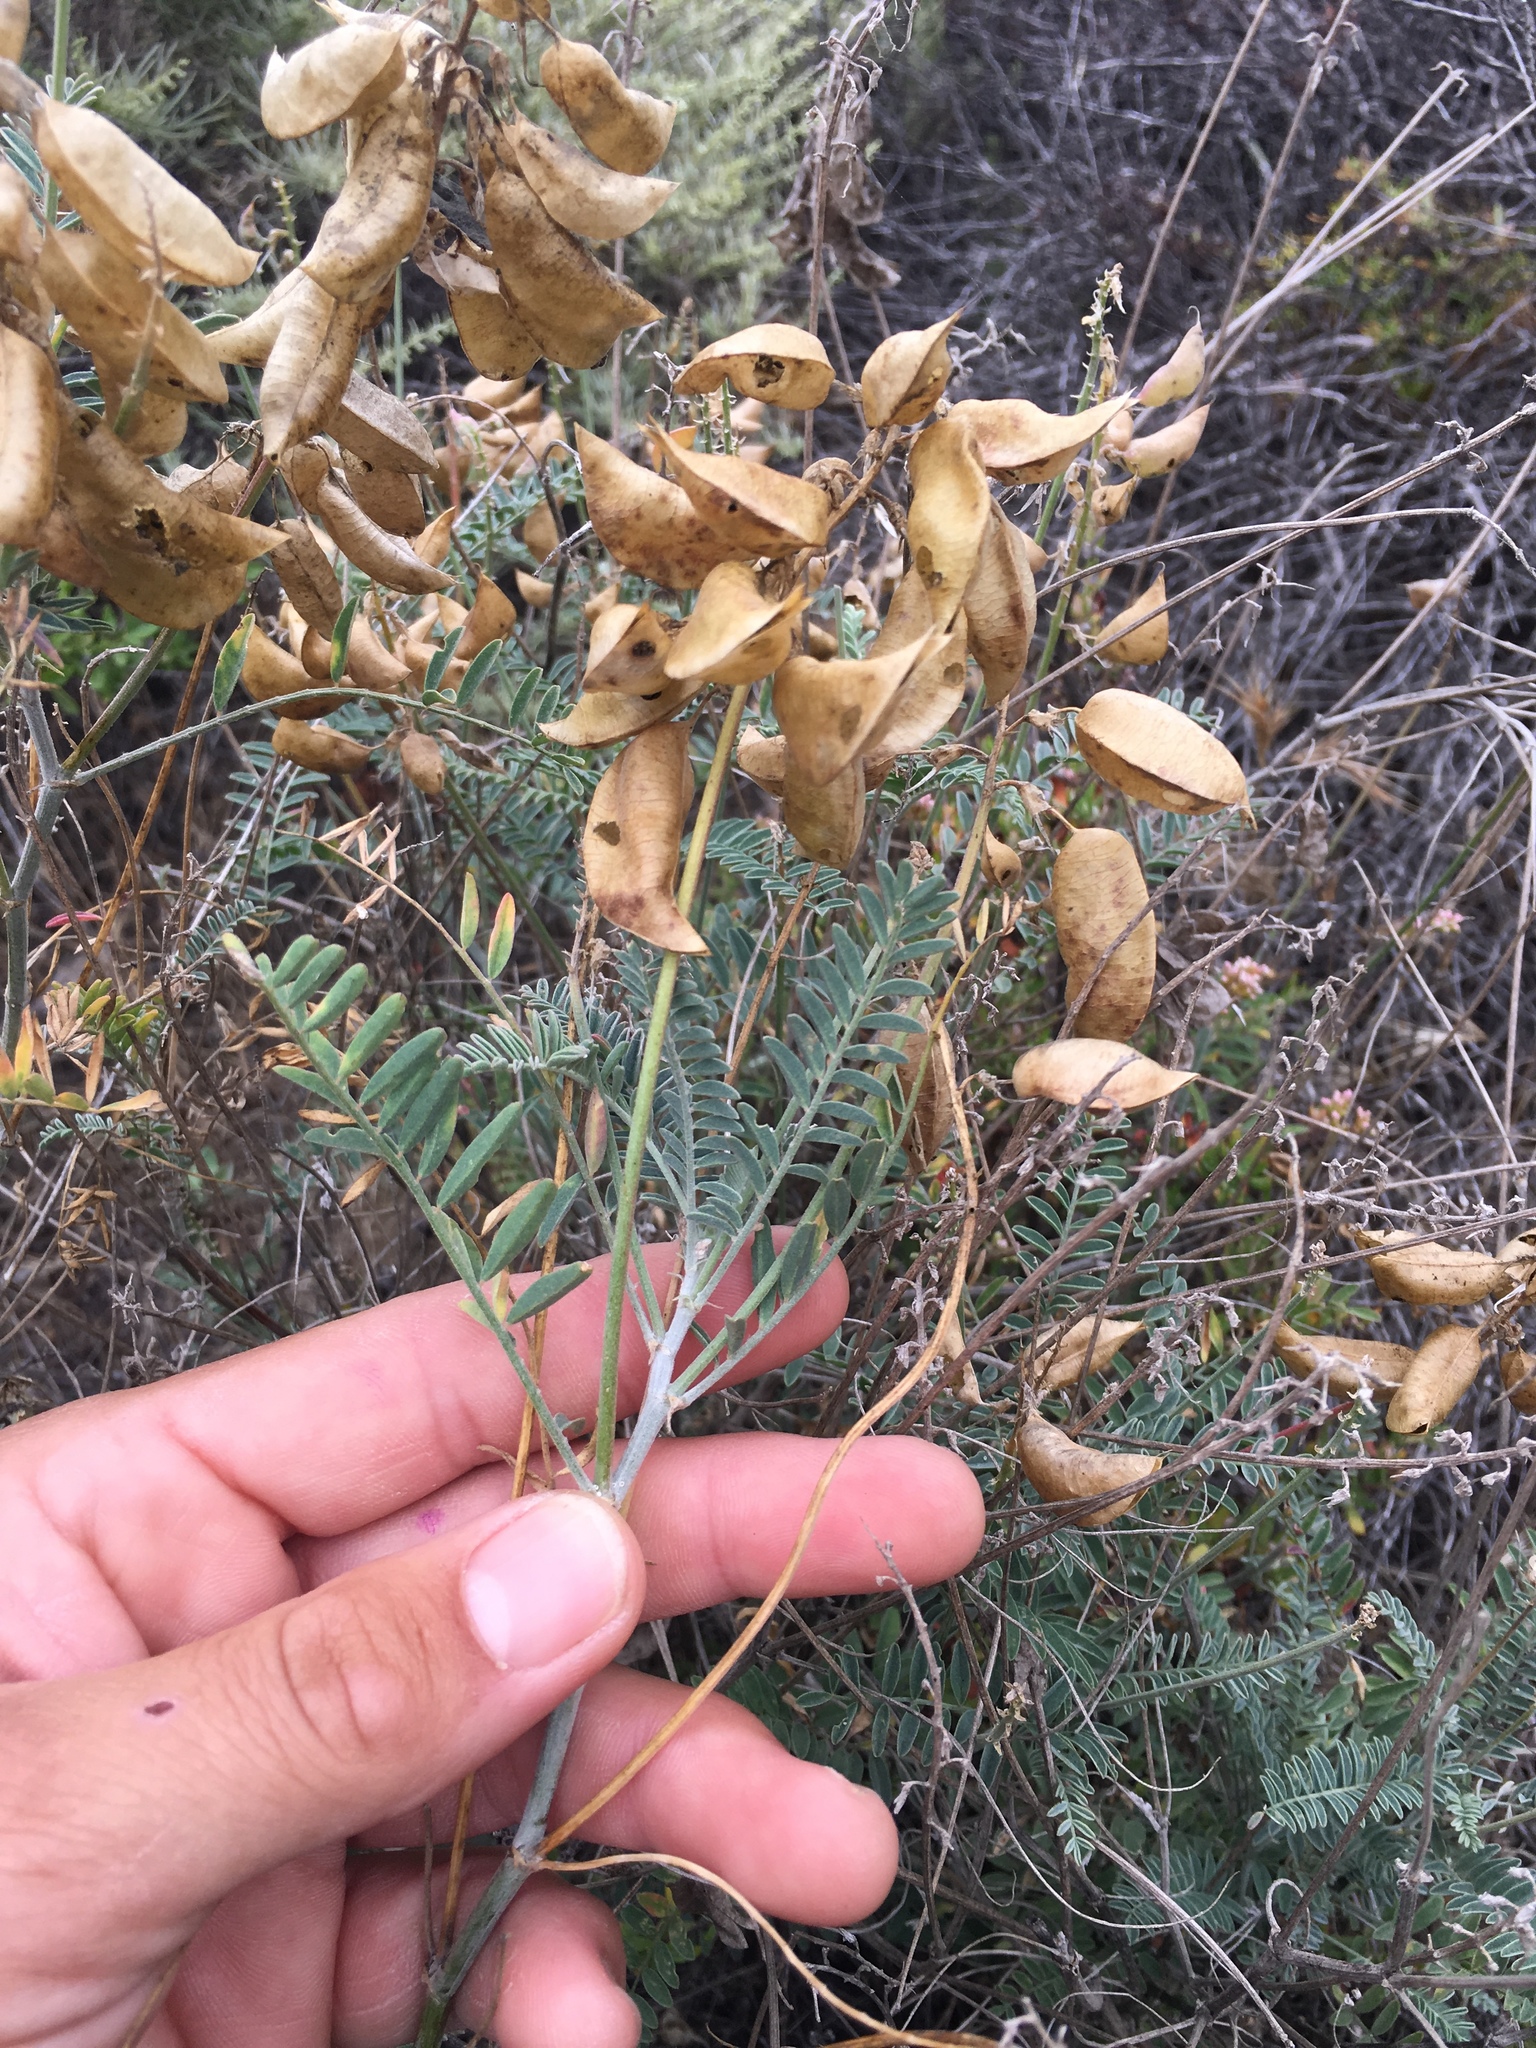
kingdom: Plantae
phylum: Tracheophyta
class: Magnoliopsida
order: Fabales
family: Fabaceae
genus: Astragalus
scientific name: Astragalus trichopodus
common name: Santa barbara milk-vetch
